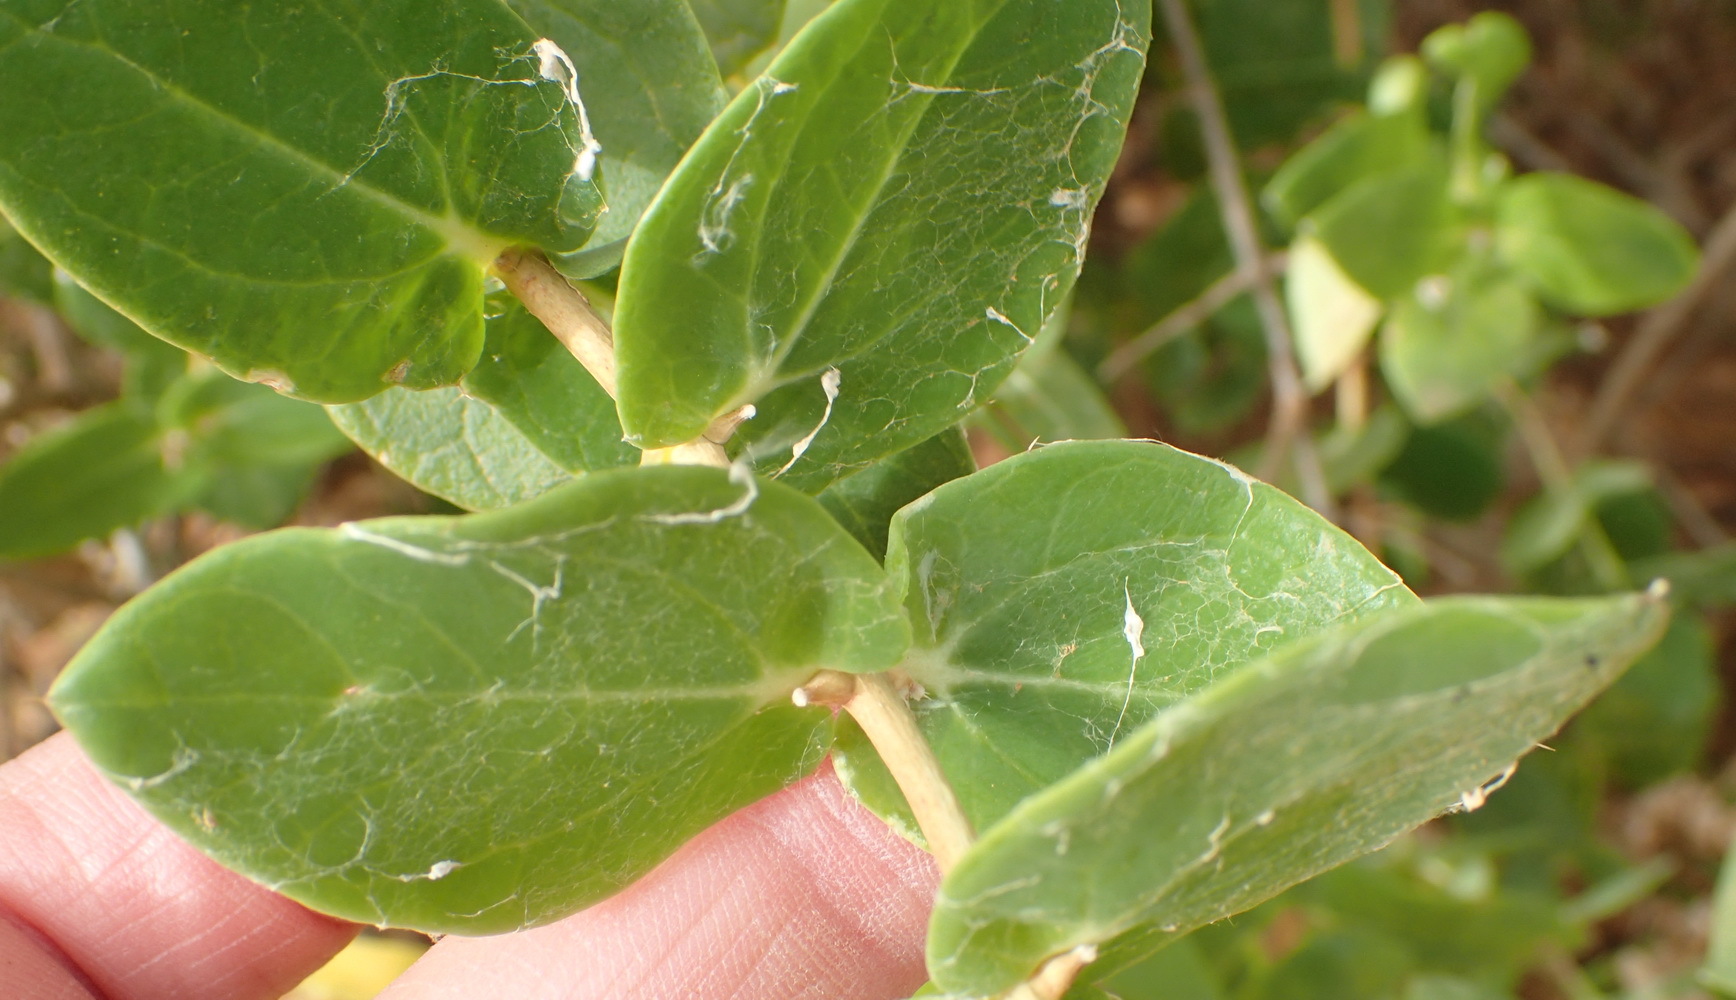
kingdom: Plantae
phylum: Tracheophyta
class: Magnoliopsida
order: Asterales
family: Asteraceae
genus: Didelta
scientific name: Didelta spinosa
